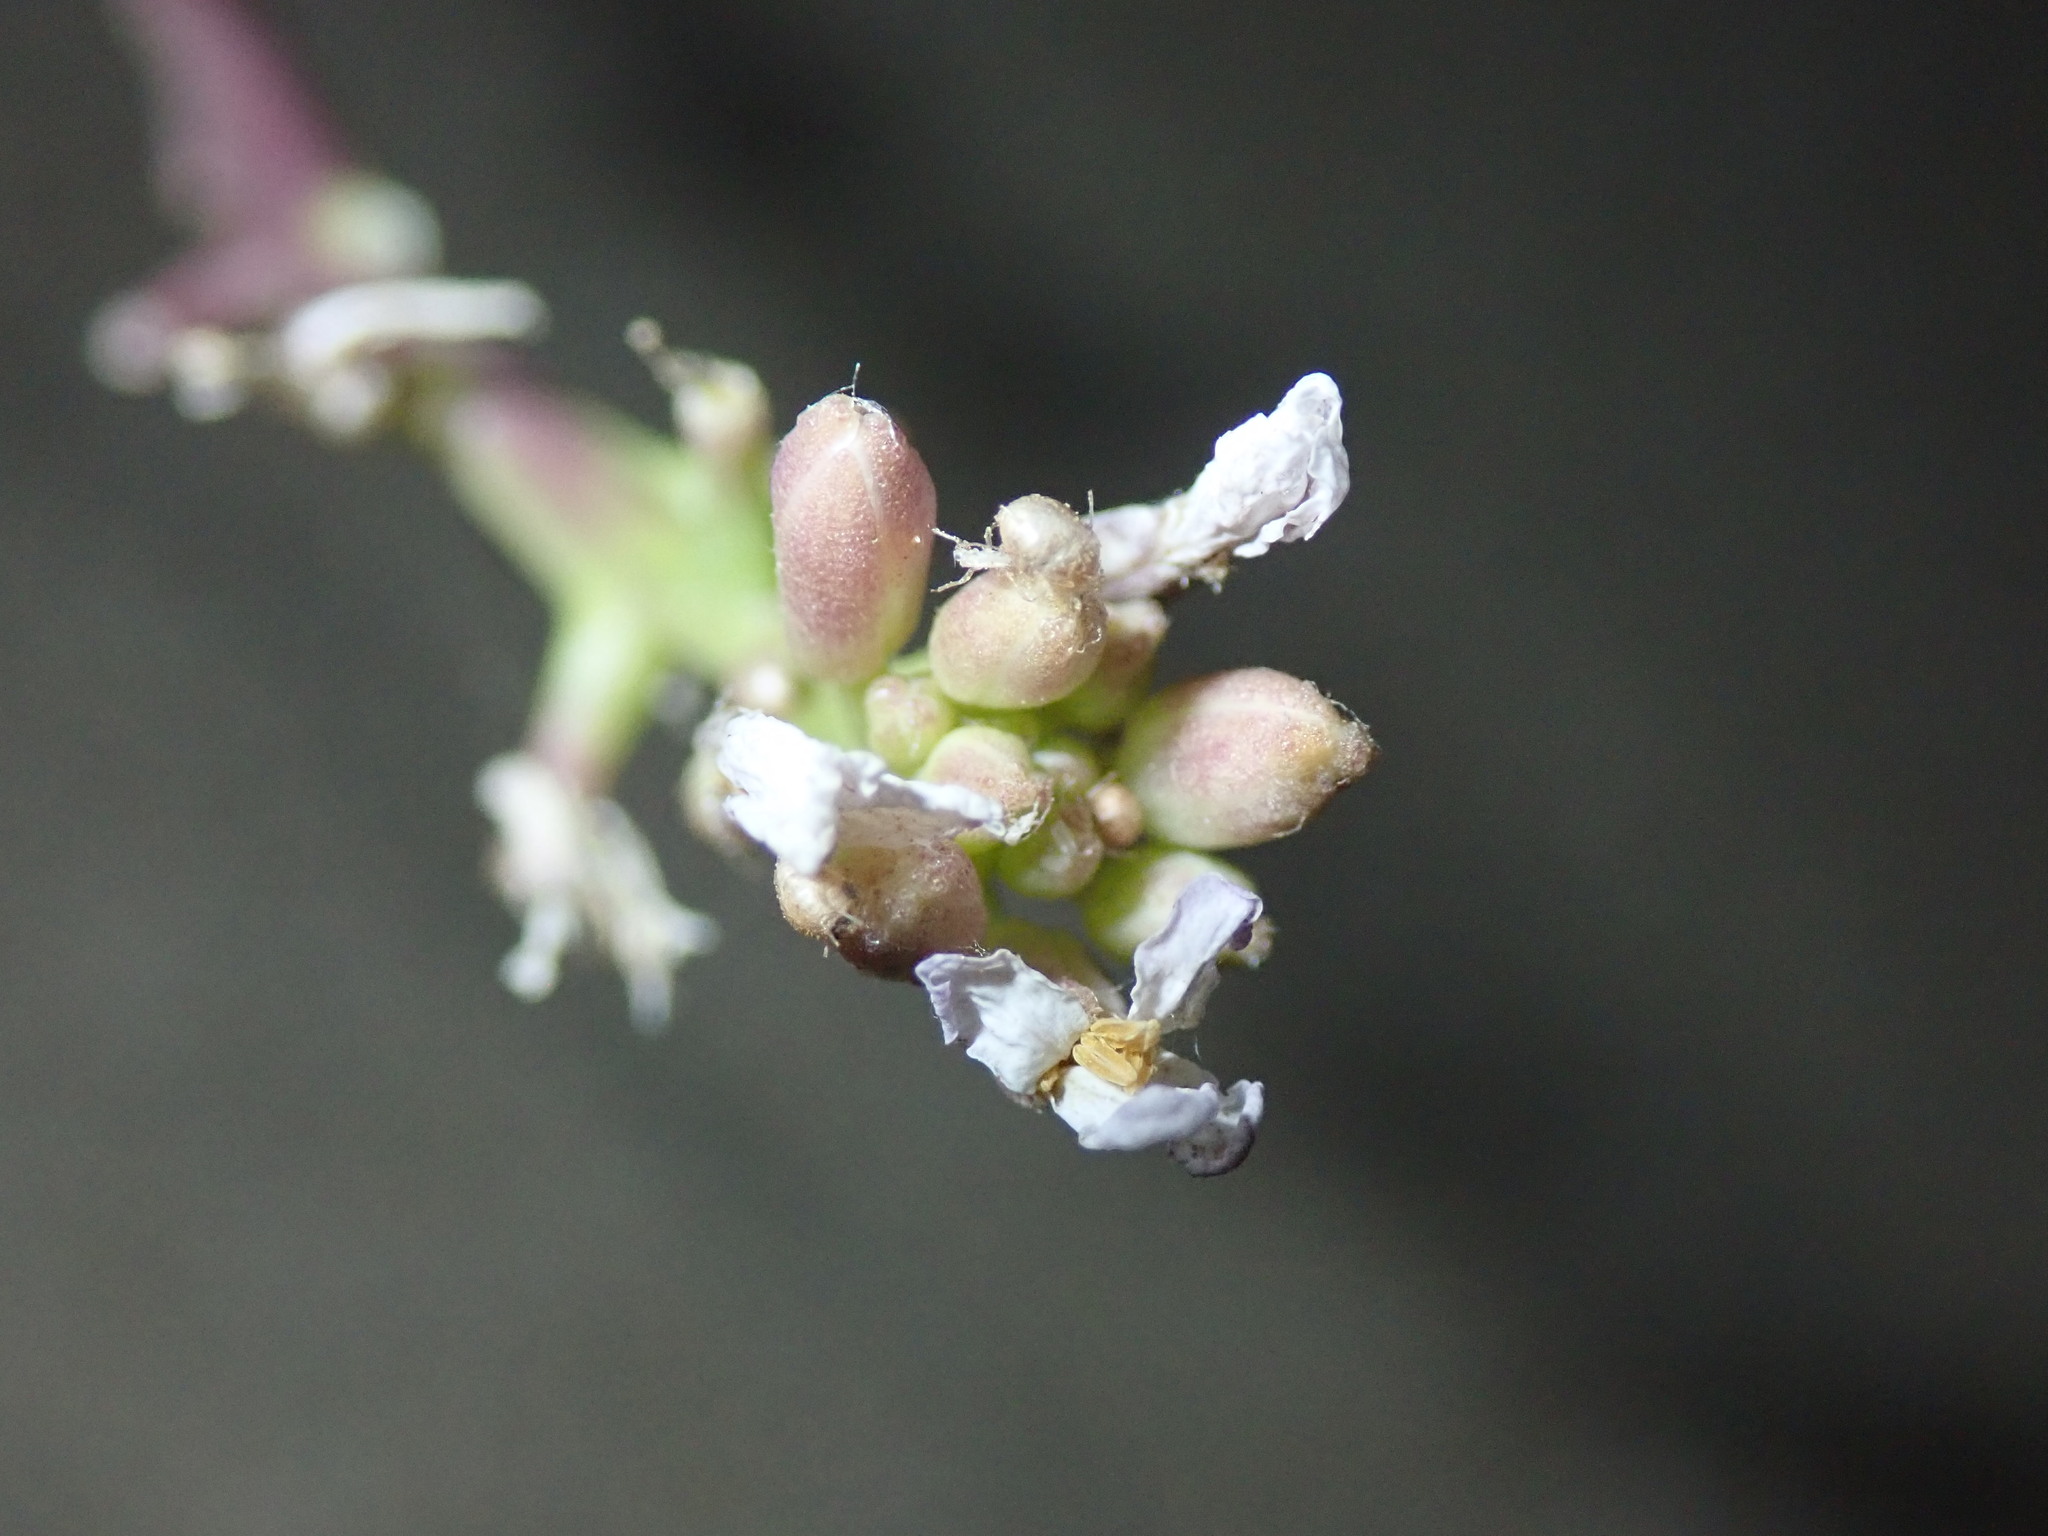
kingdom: Plantae
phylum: Tracheophyta
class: Magnoliopsida
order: Brassicales
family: Brassicaceae
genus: Cakile
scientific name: Cakile maritima
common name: Sea rocket
